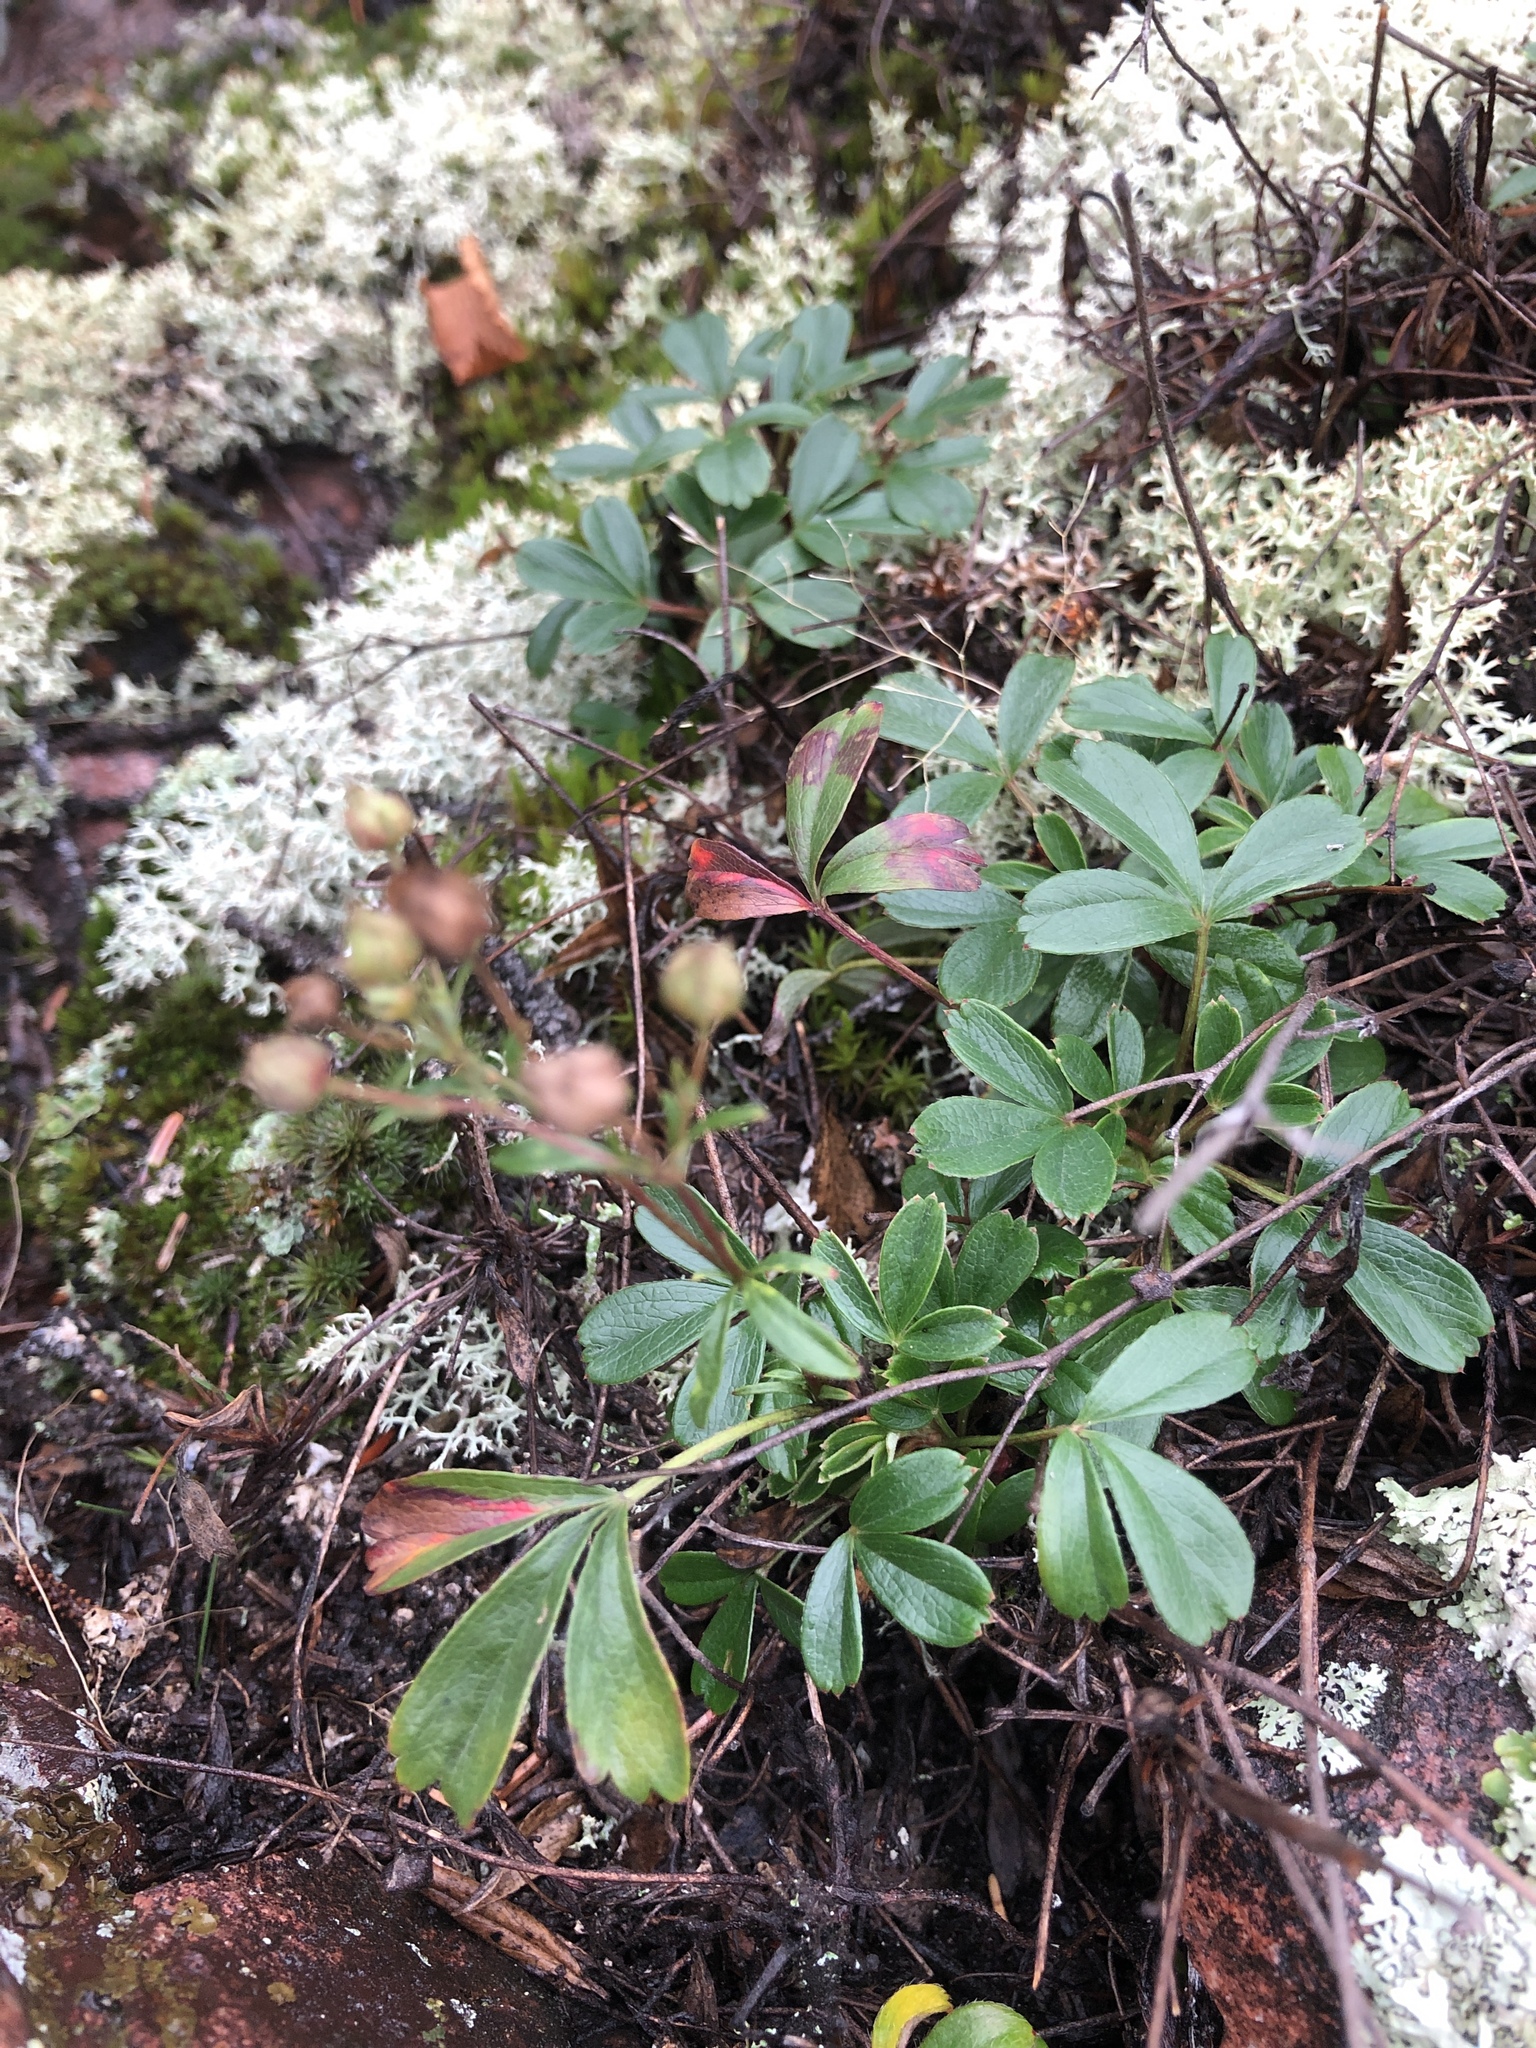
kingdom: Plantae
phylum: Tracheophyta
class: Magnoliopsida
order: Rosales
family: Rosaceae
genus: Sibbaldia
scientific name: Sibbaldia tridentata
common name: Three-toothed cinquefoil
